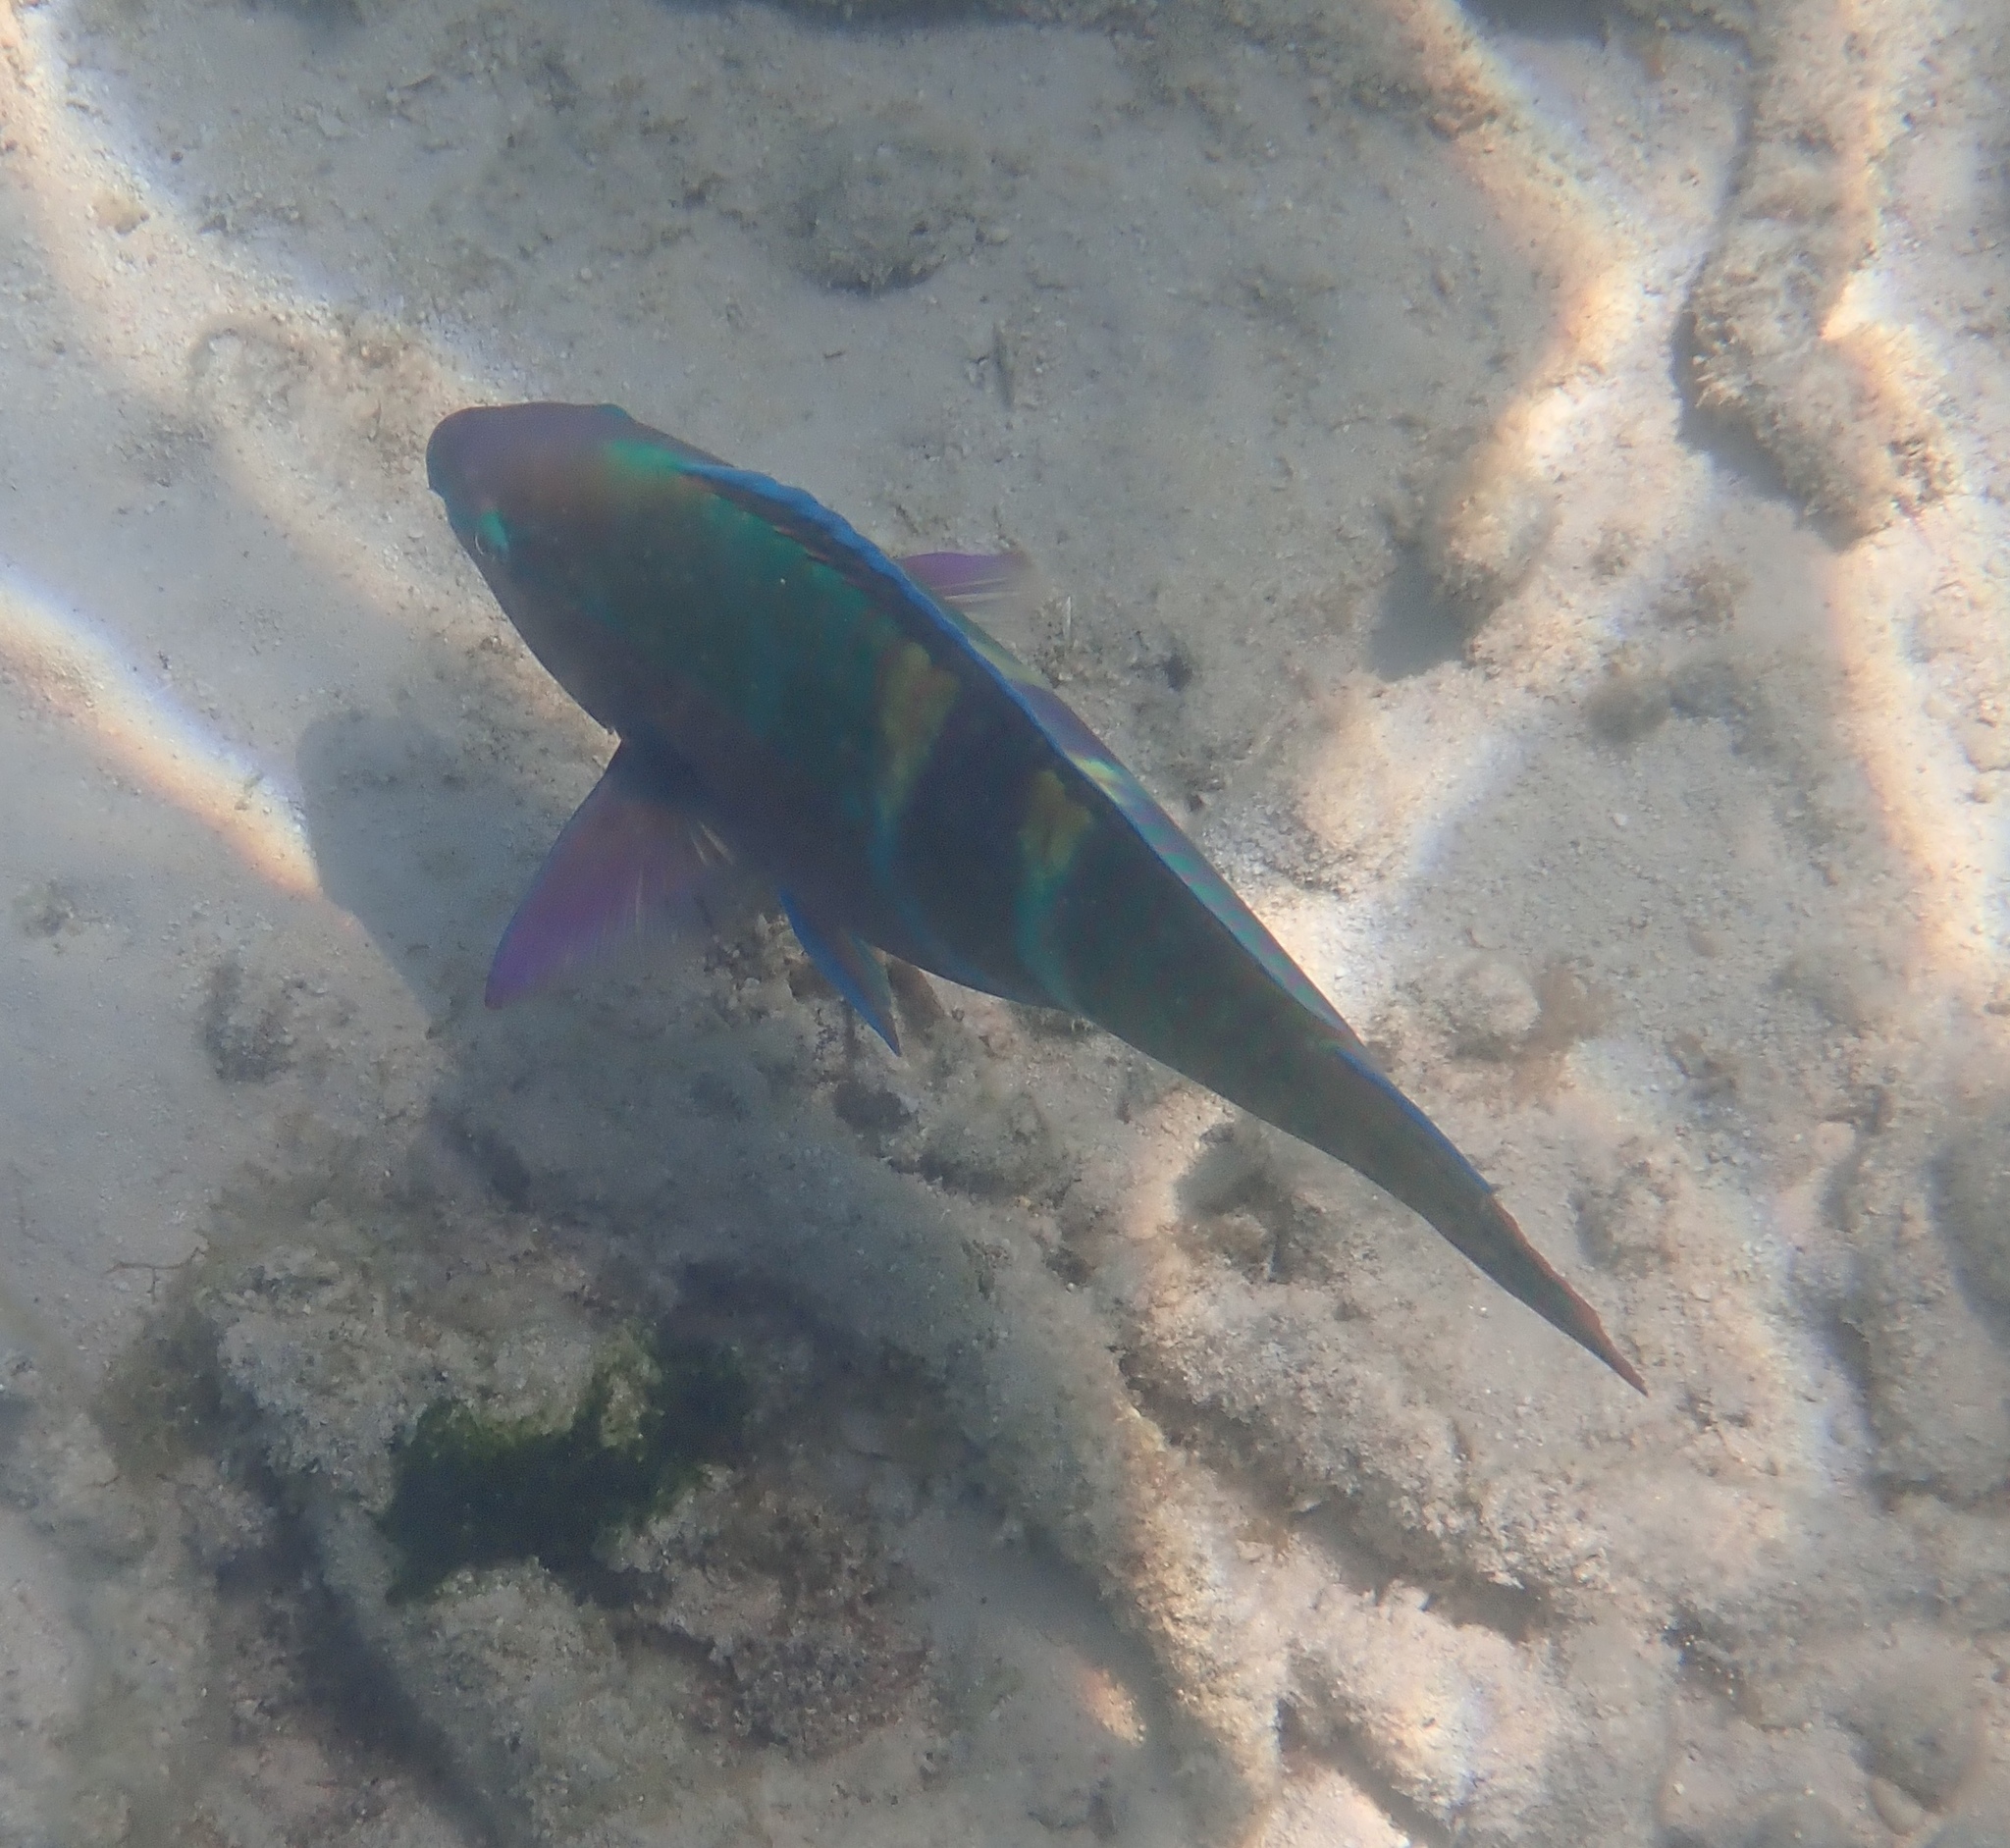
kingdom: Animalia
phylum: Chordata
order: Perciformes
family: Scaridae
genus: Scarus
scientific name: Scarus schlegeli
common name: Schlegel's parrotfish
